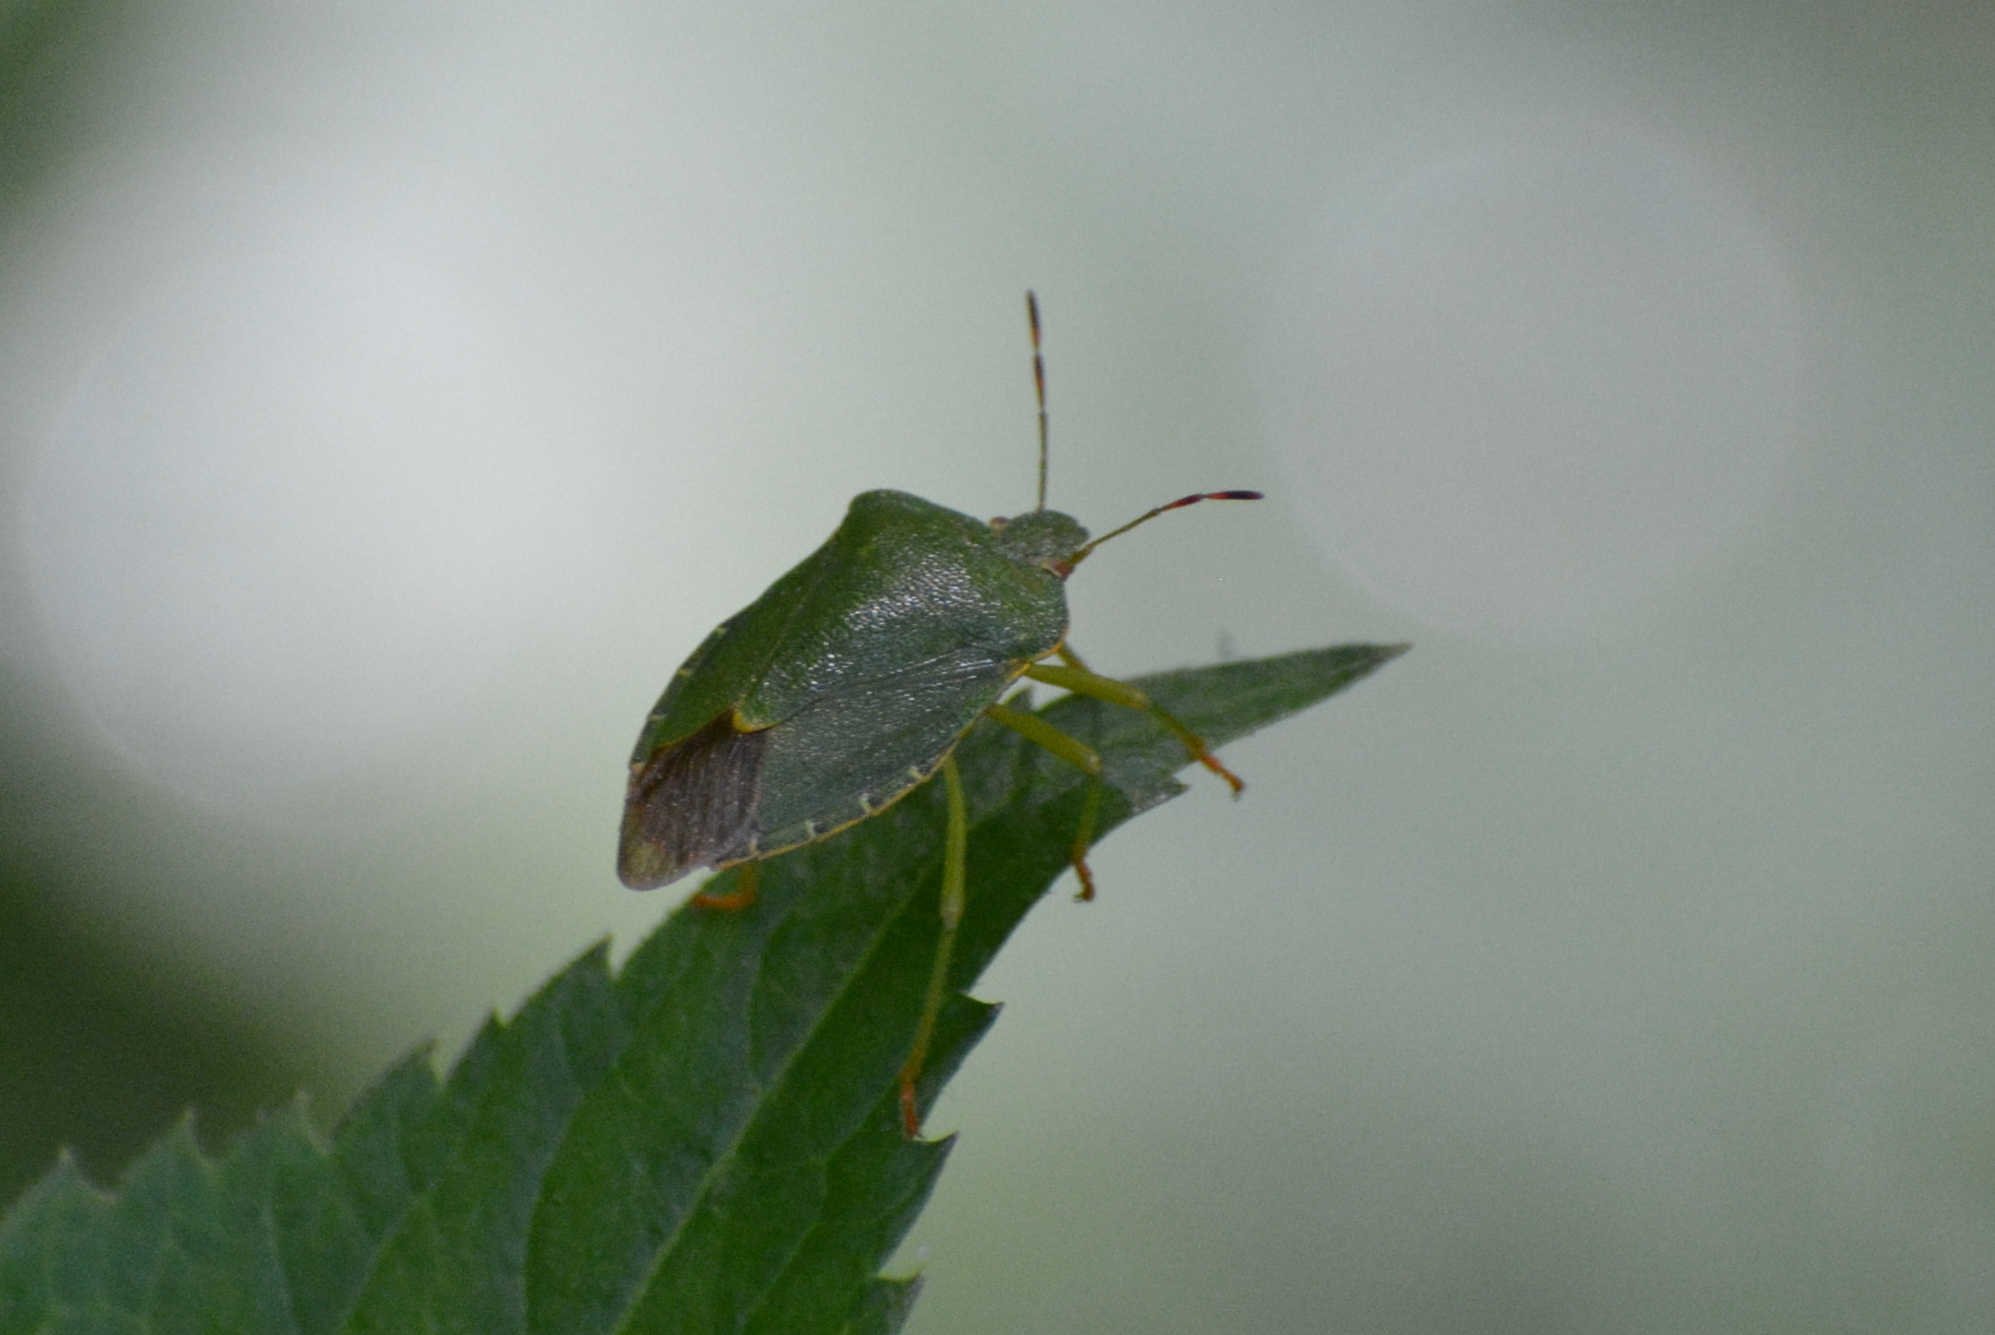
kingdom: Animalia
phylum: Arthropoda
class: Insecta
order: Hemiptera
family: Pentatomidae
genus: Palomena
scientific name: Palomena prasina
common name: Green shieldbug
